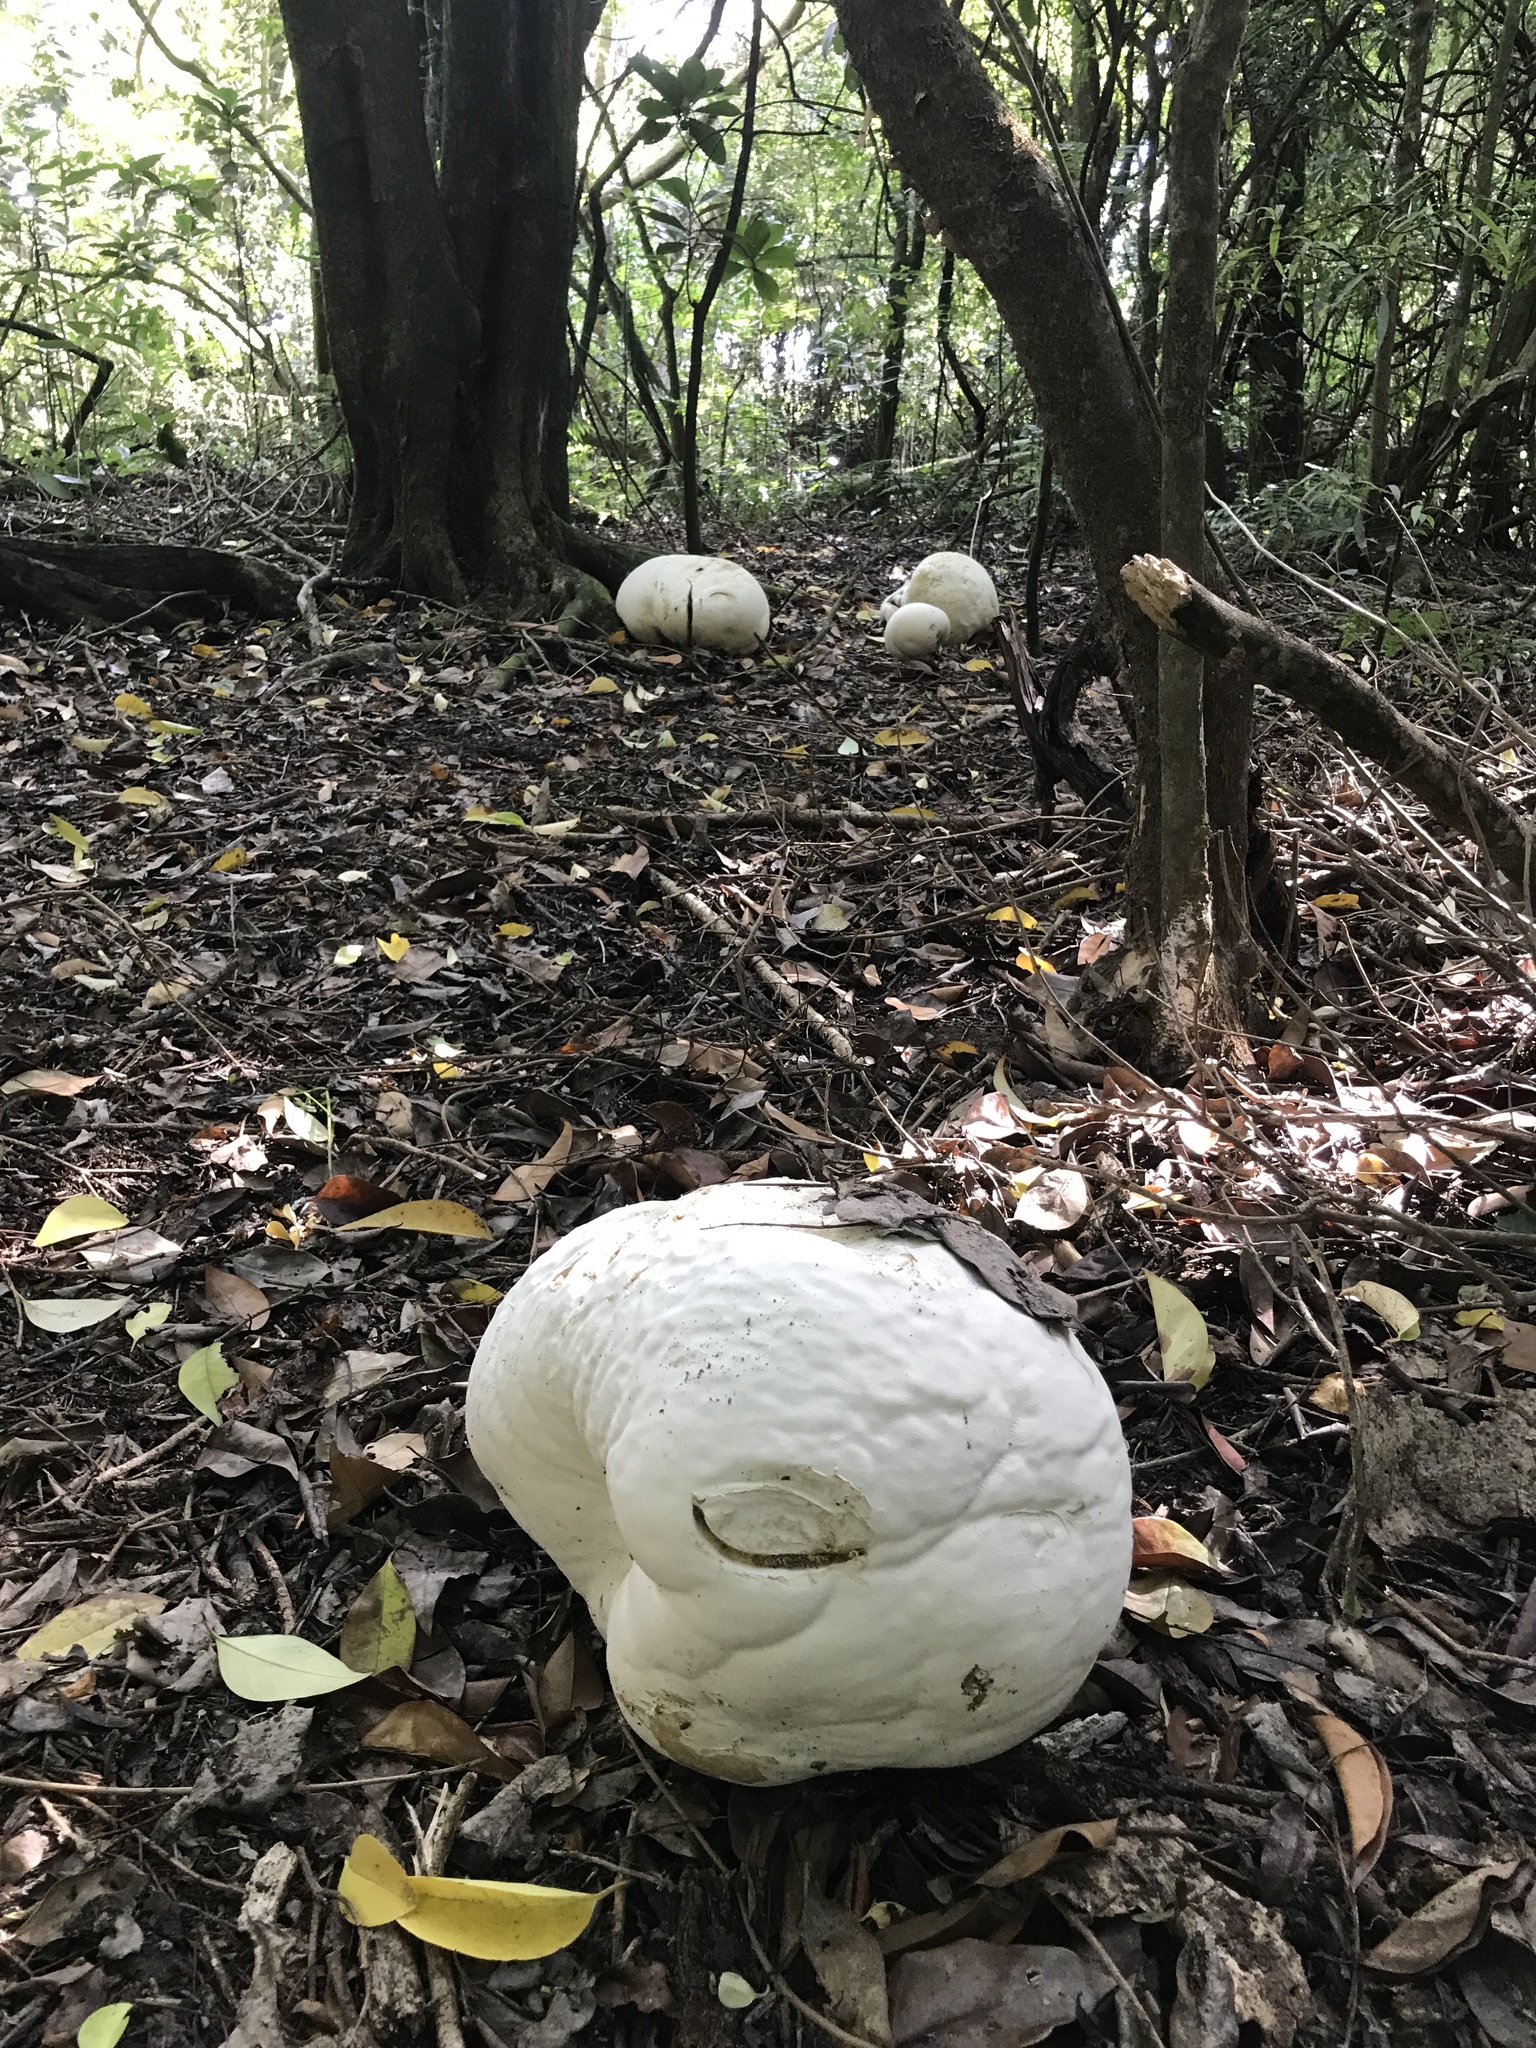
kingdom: Fungi
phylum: Basidiomycota
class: Agaricomycetes
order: Agaricales
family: Lycoperdaceae
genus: Calvatia
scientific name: Calvatia gigantea
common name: Giant puffball
